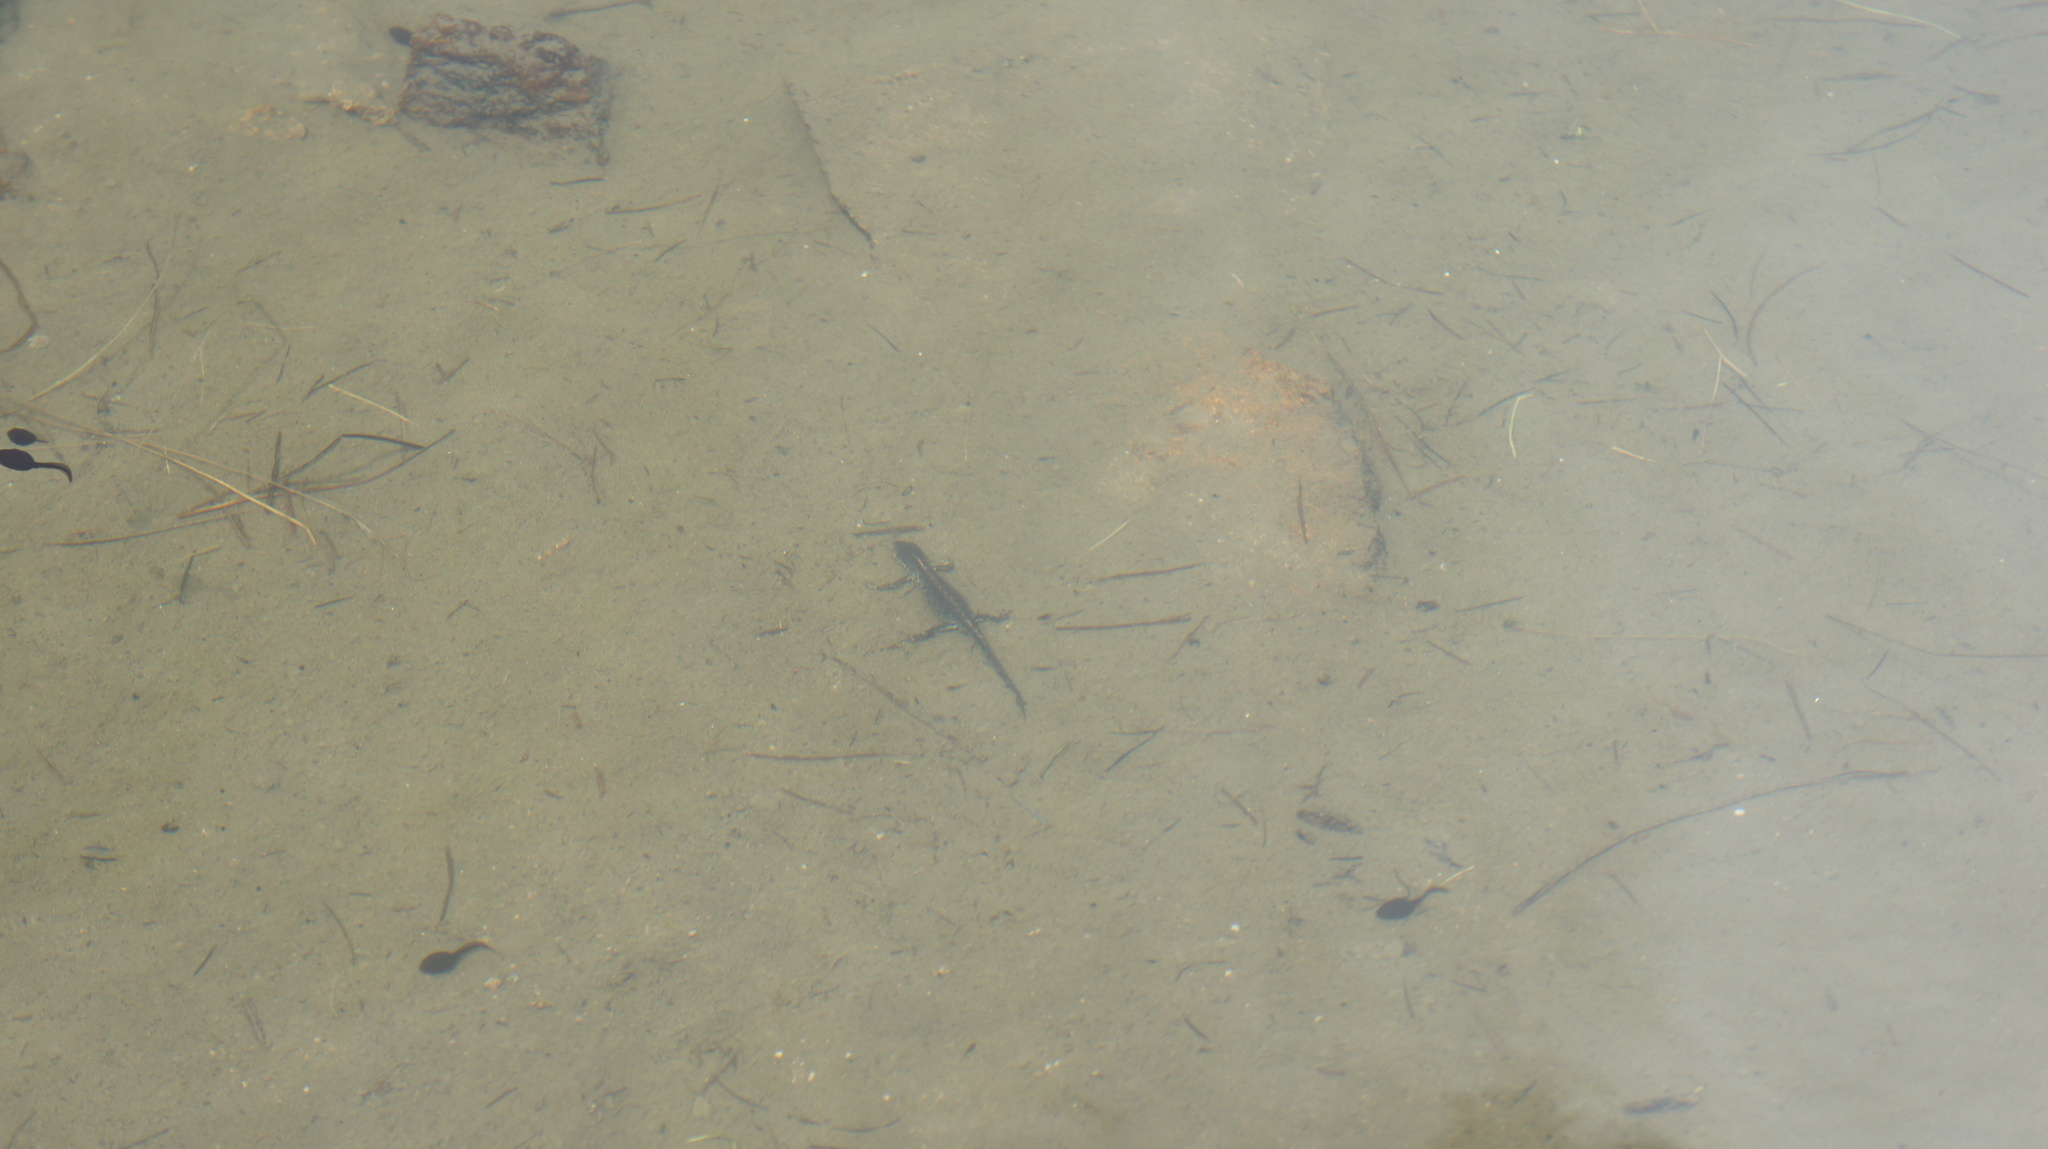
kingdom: Animalia
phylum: Chordata
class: Amphibia
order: Caudata
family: Salamandridae
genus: Ichthyosaura
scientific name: Ichthyosaura alpestris
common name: Alpine newt
